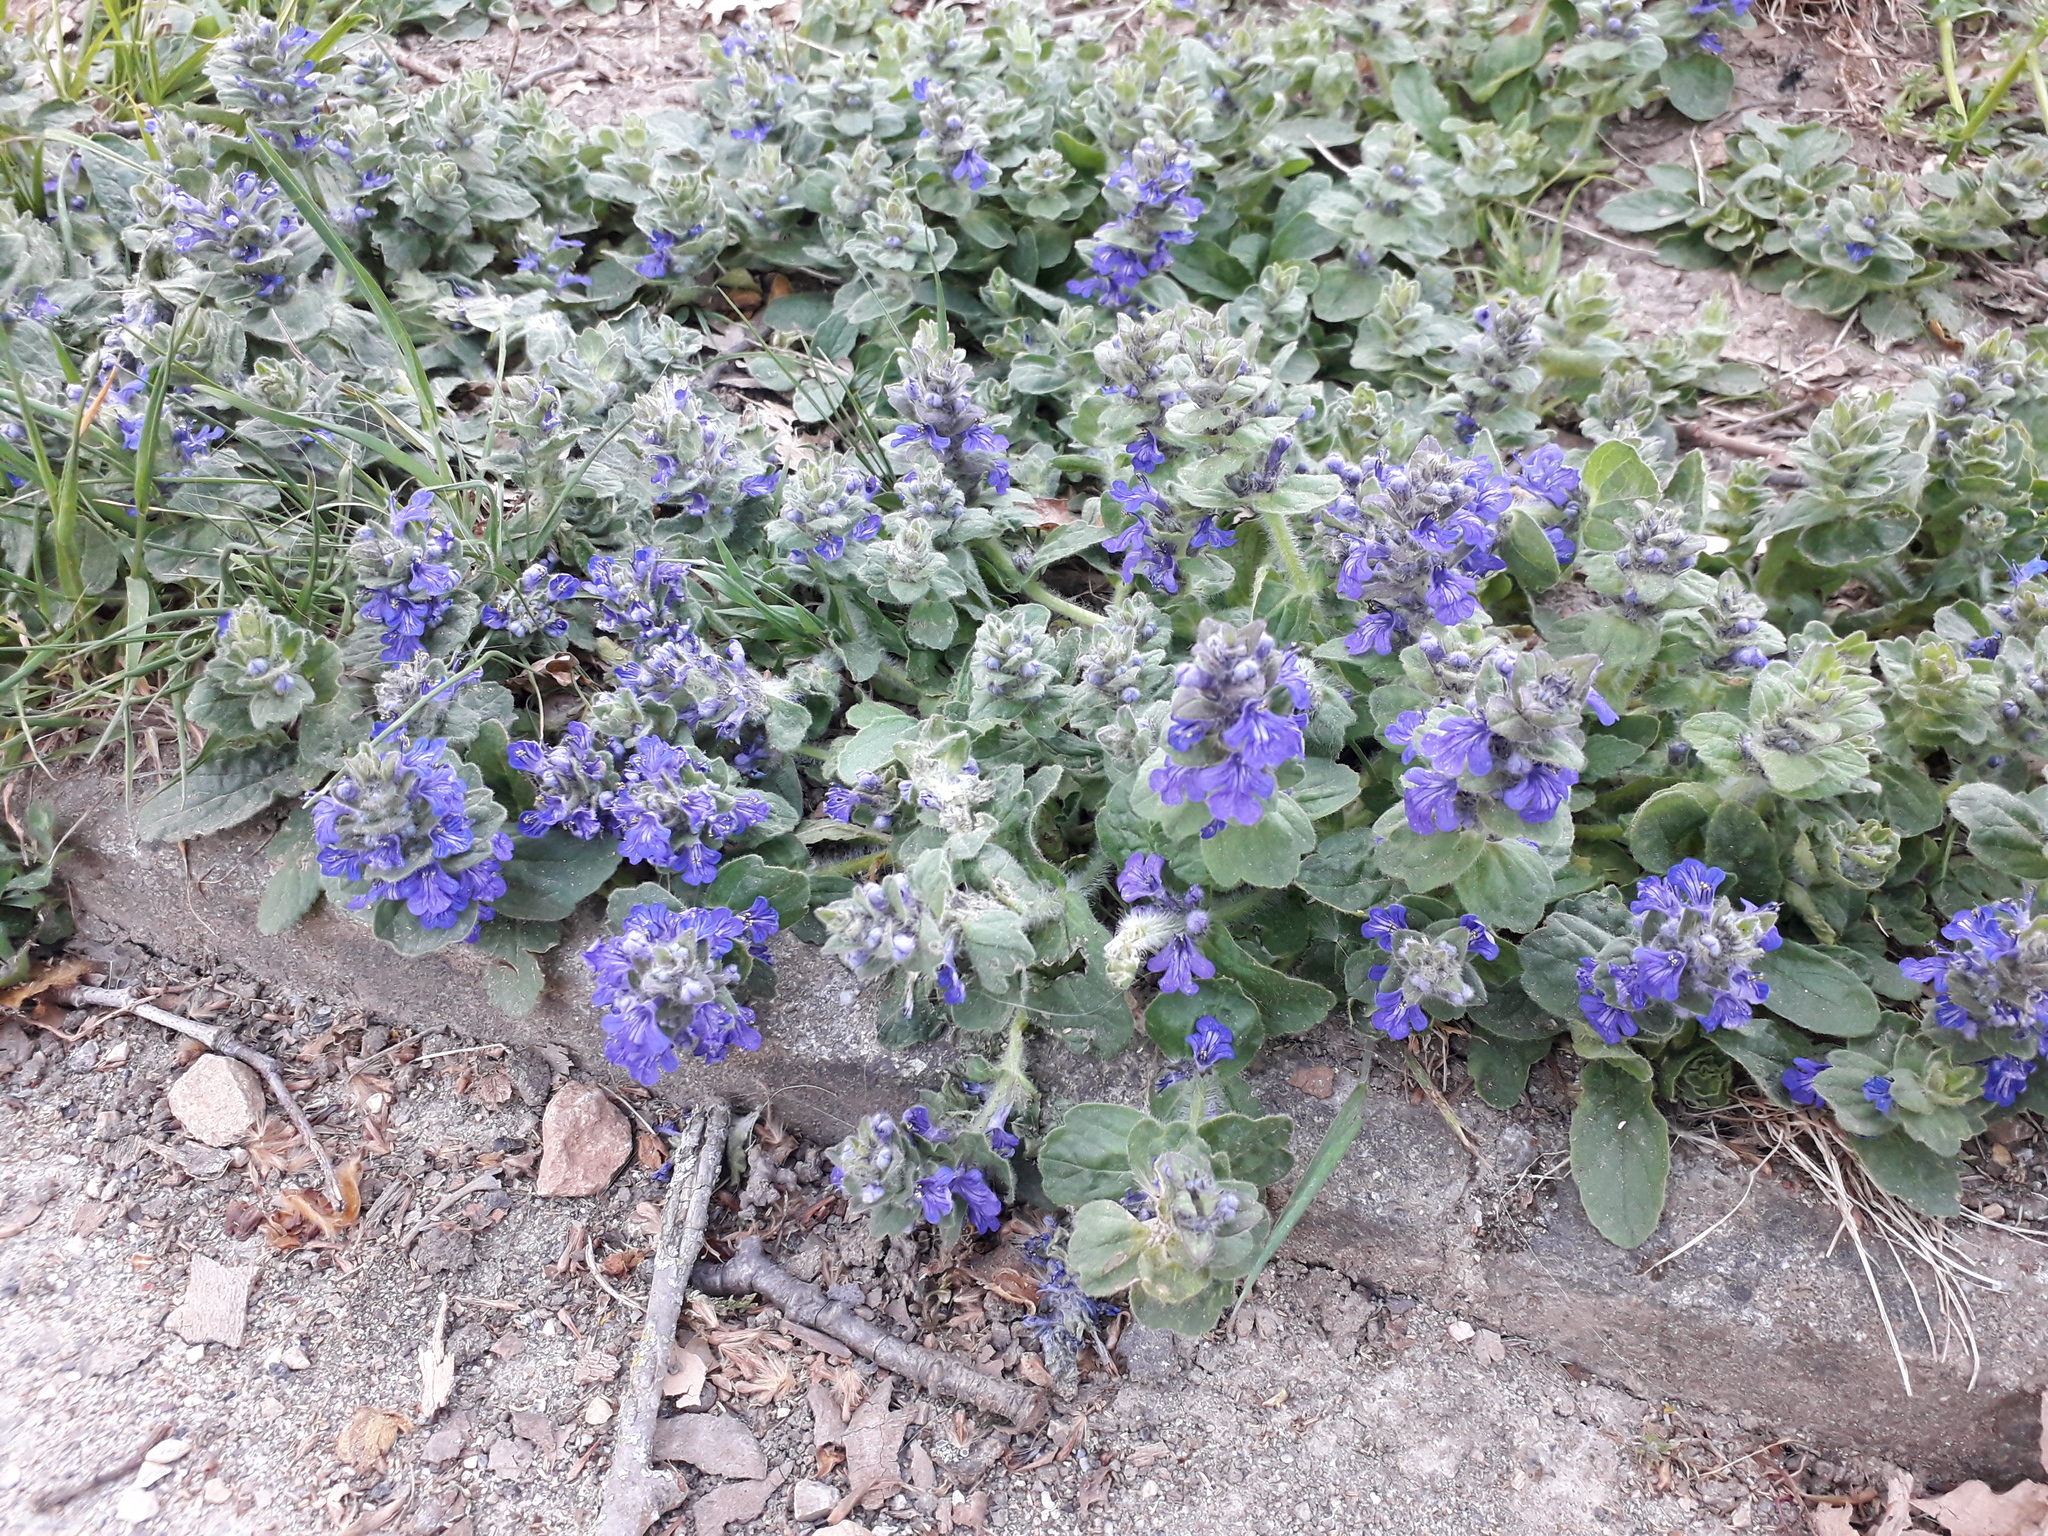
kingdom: Plantae
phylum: Tracheophyta
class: Magnoliopsida
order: Lamiales
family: Lamiaceae
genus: Ajuga
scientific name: Ajuga genevensis
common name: Blue bugle
